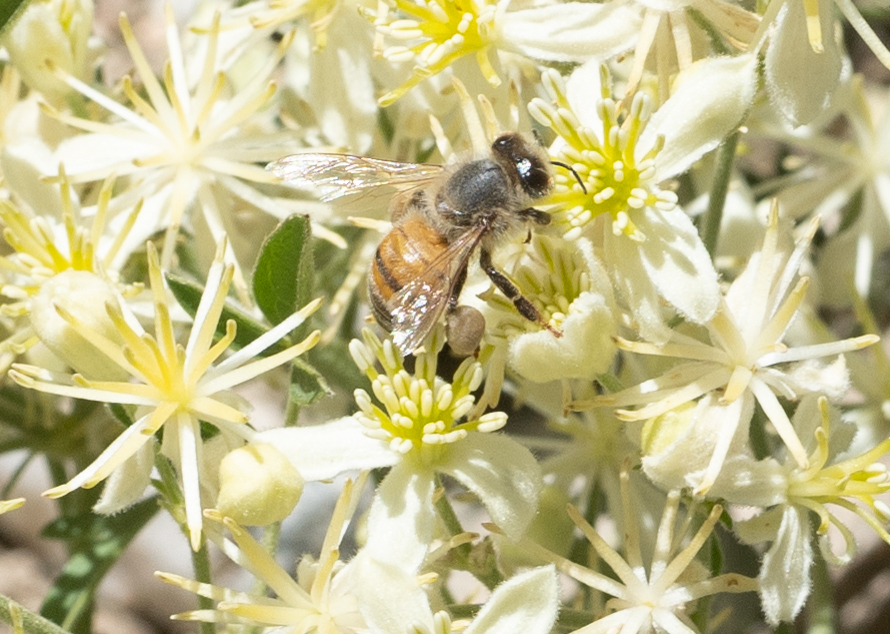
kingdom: Animalia
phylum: Arthropoda
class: Insecta
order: Hymenoptera
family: Apidae
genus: Apis
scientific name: Apis mellifera
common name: Honey bee
